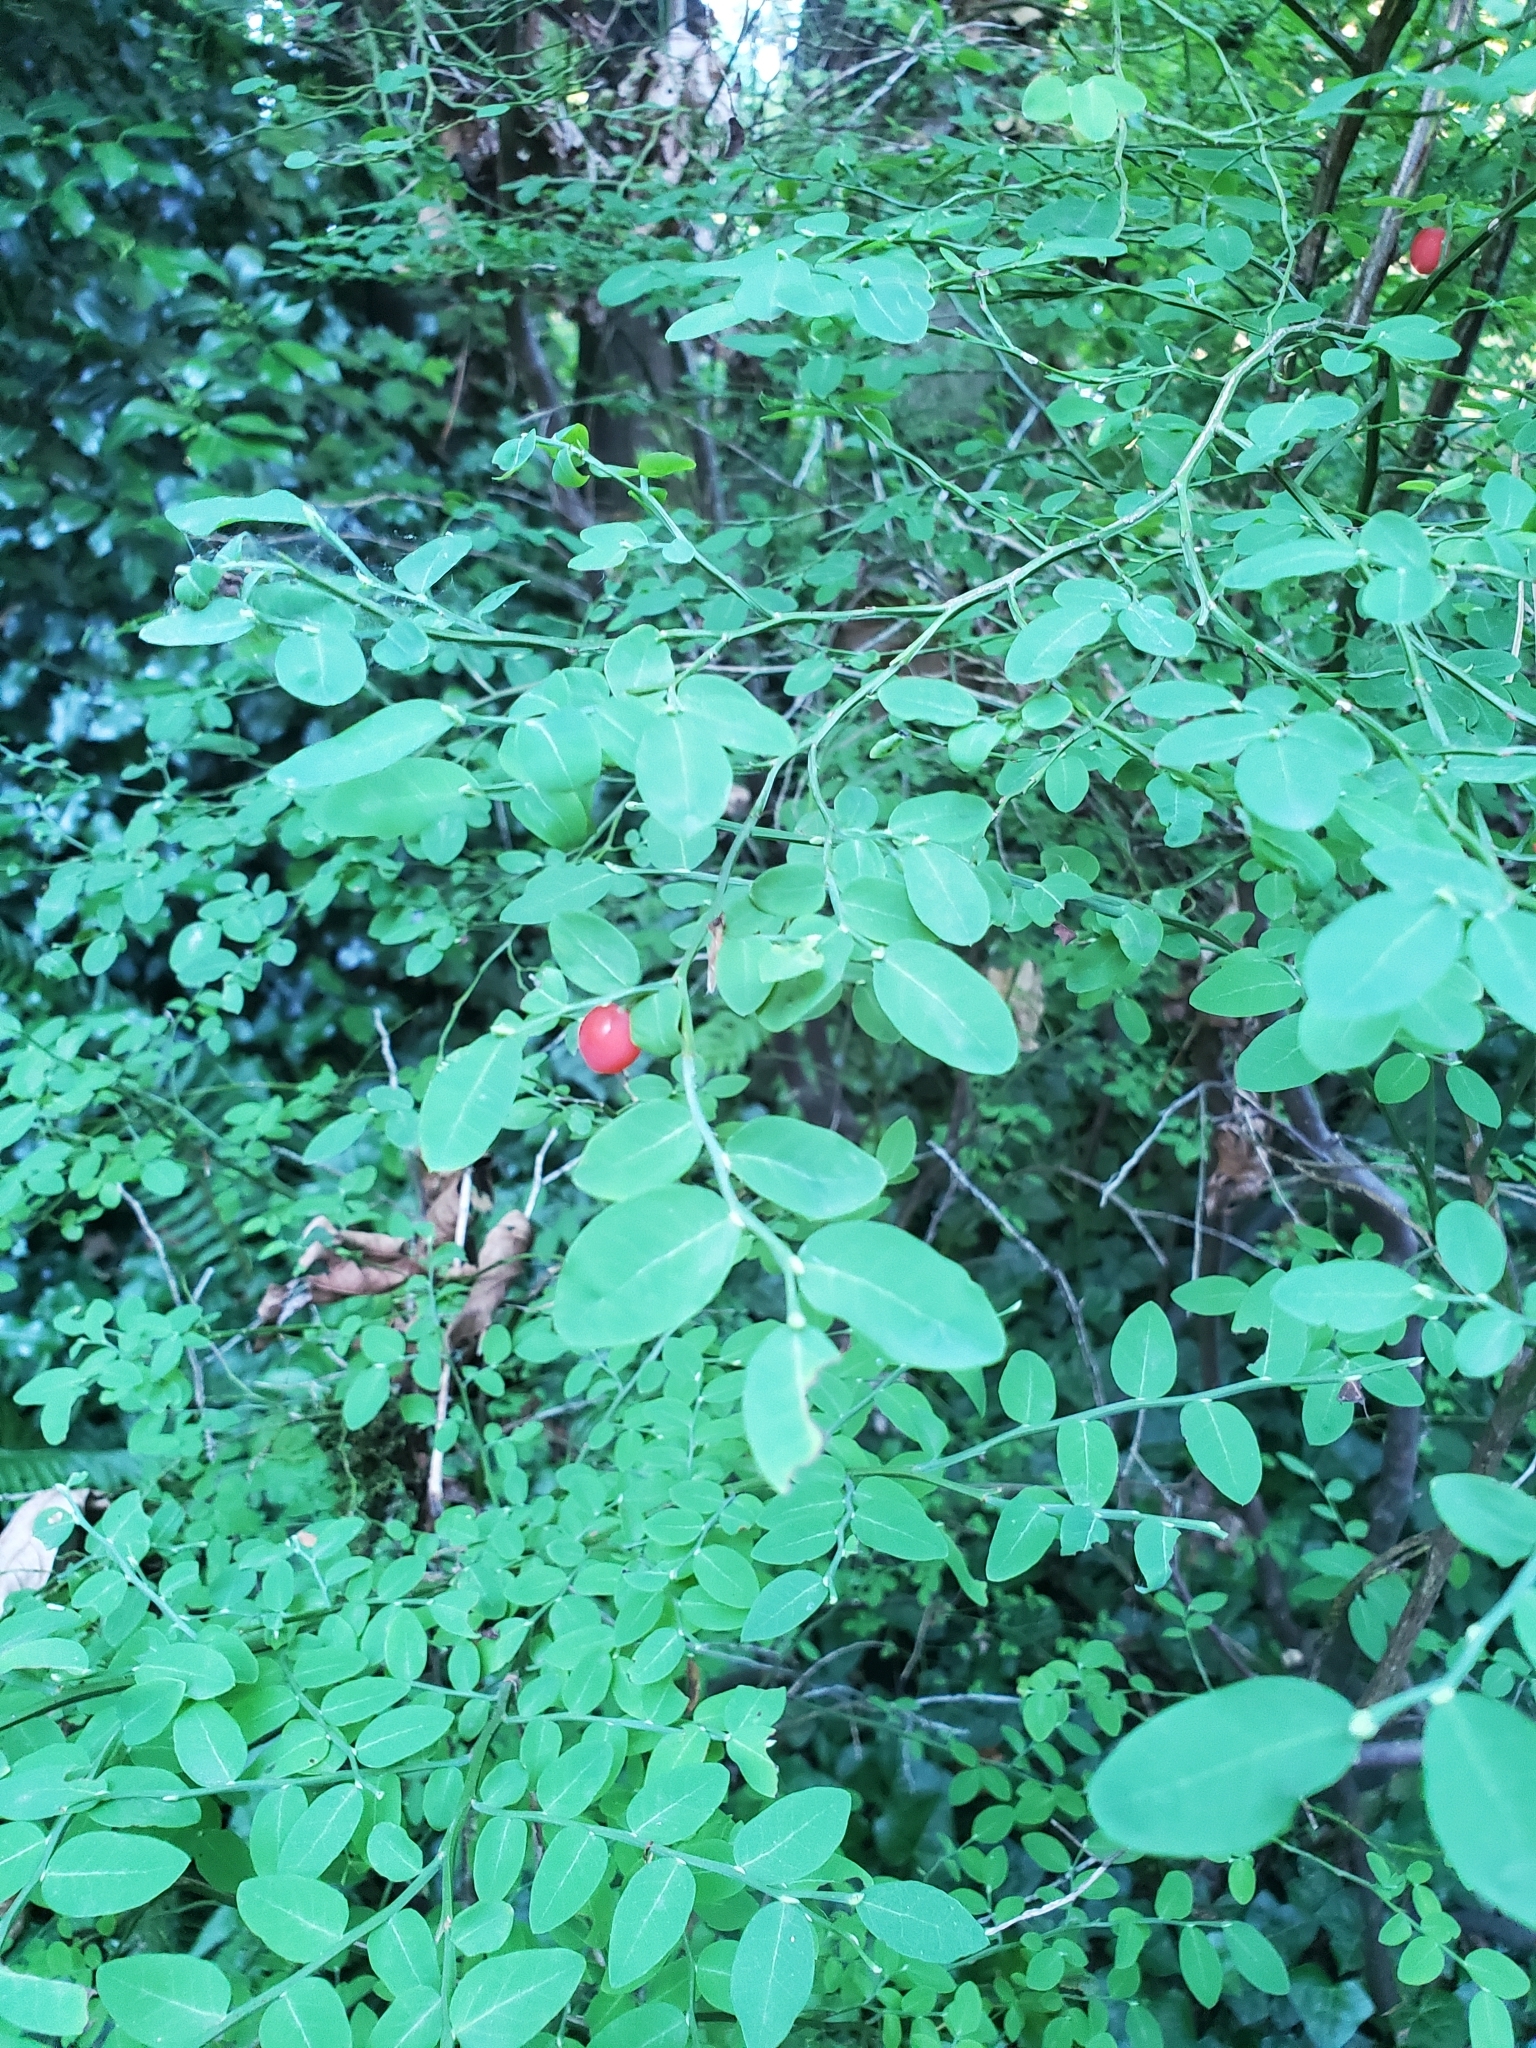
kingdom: Plantae
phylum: Tracheophyta
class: Magnoliopsida
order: Ericales
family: Ericaceae
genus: Vaccinium
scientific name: Vaccinium parvifolium
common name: Red-huckleberry
